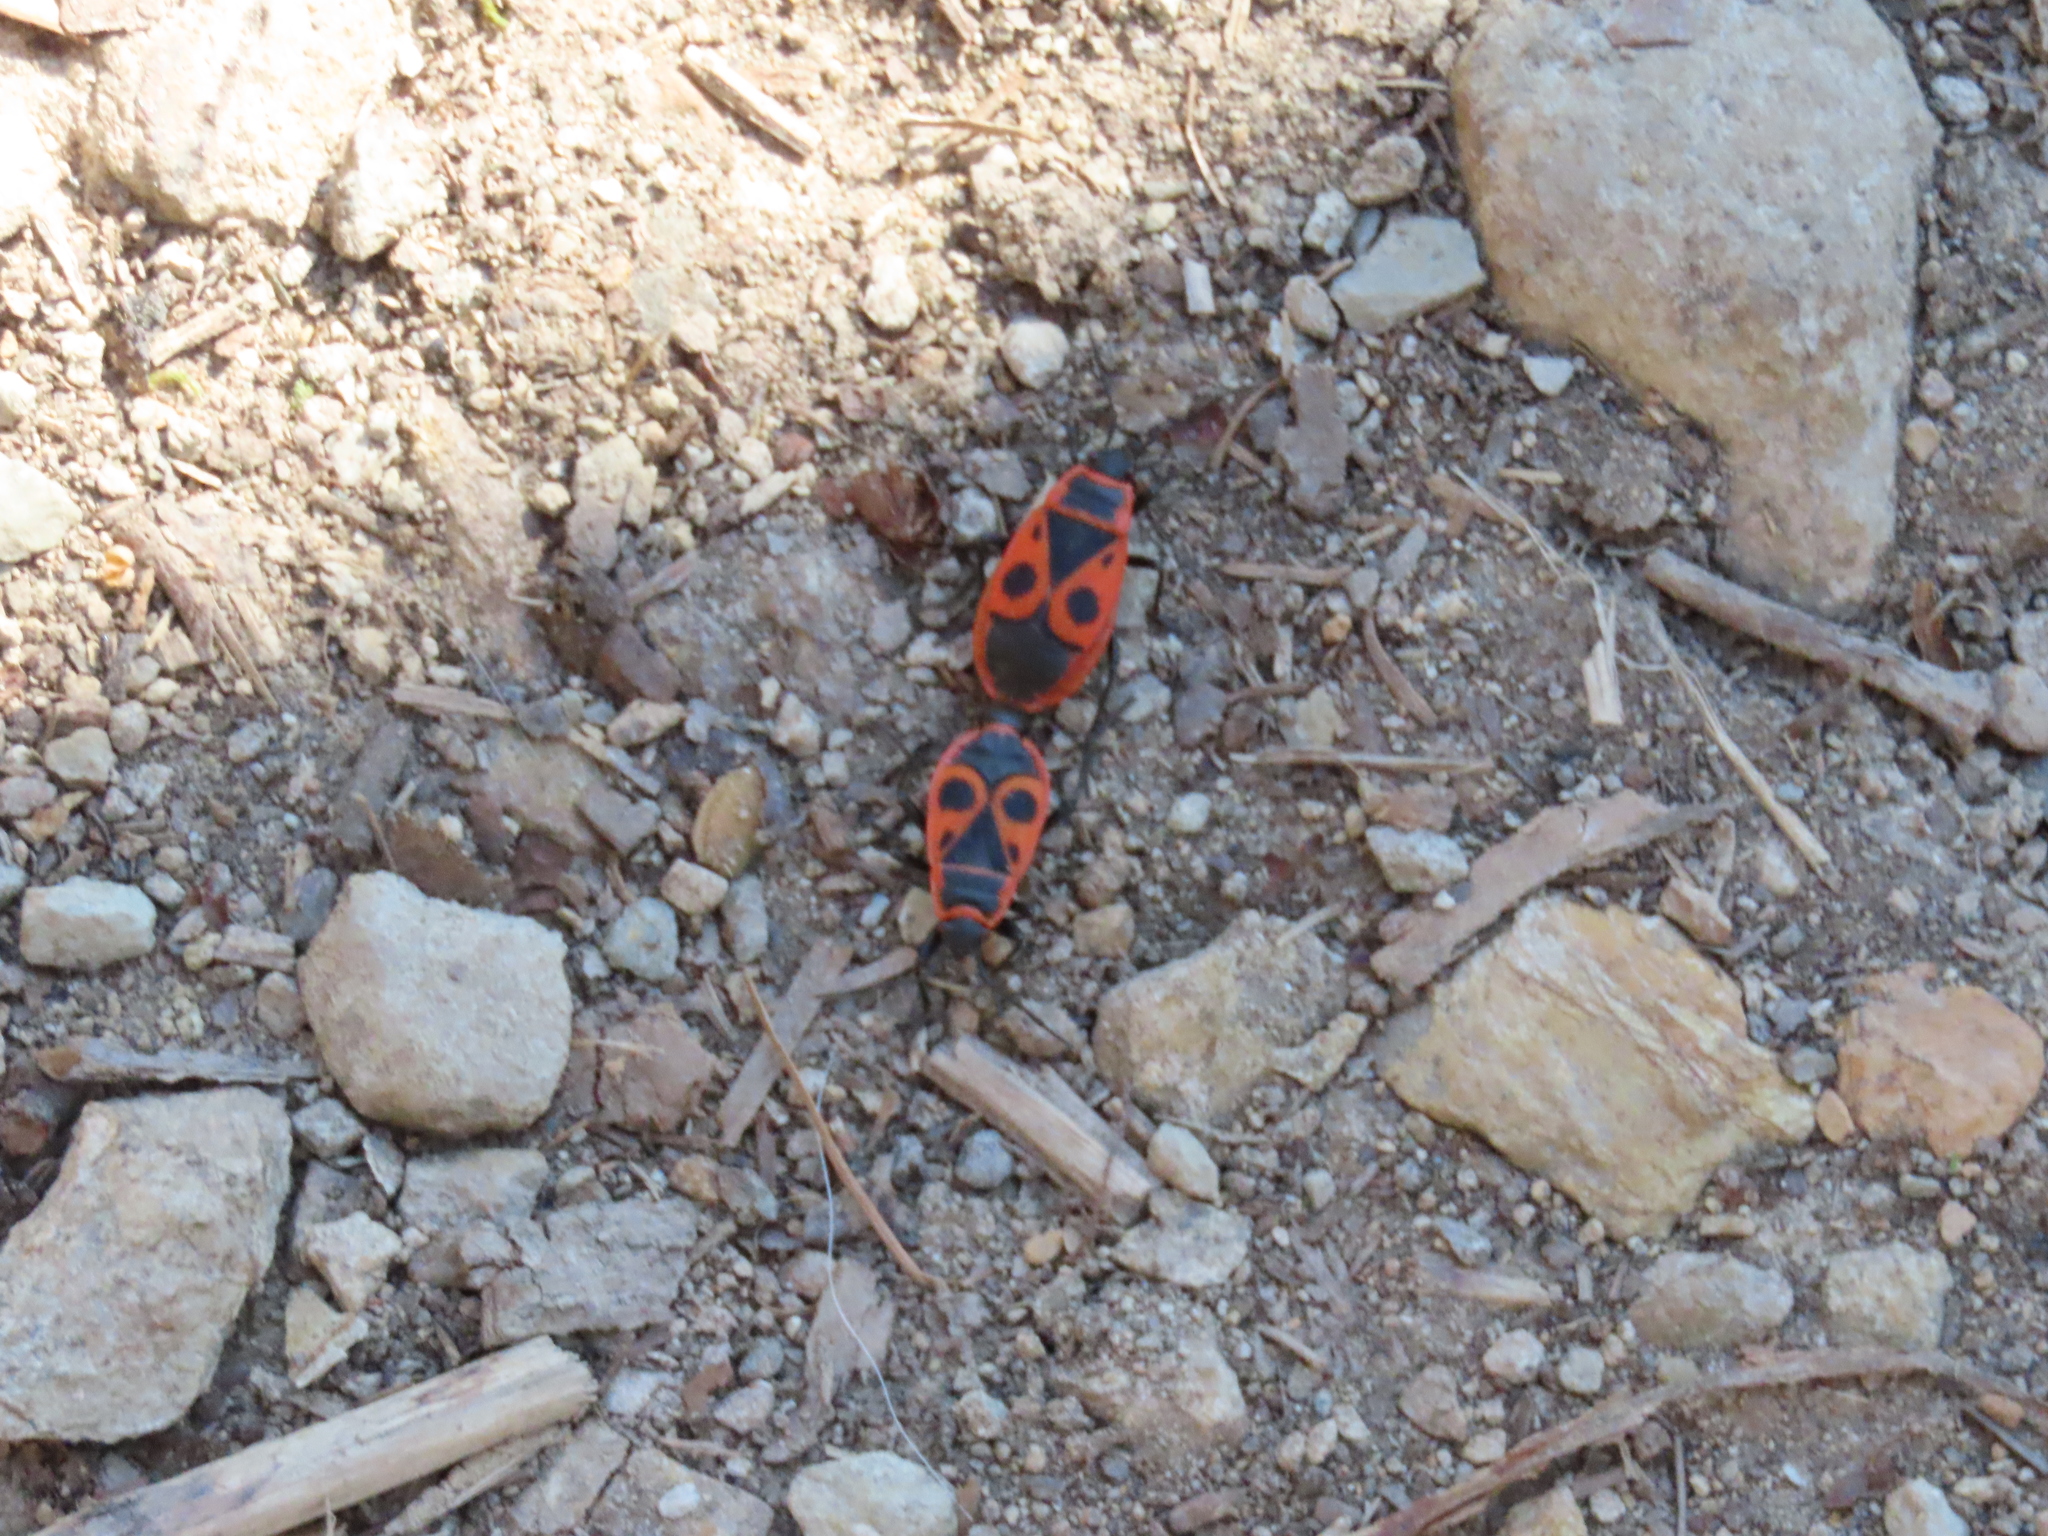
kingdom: Animalia
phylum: Arthropoda
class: Insecta
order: Hemiptera
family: Pyrrhocoridae
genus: Pyrrhocoris
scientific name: Pyrrhocoris apterus
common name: Firebug
